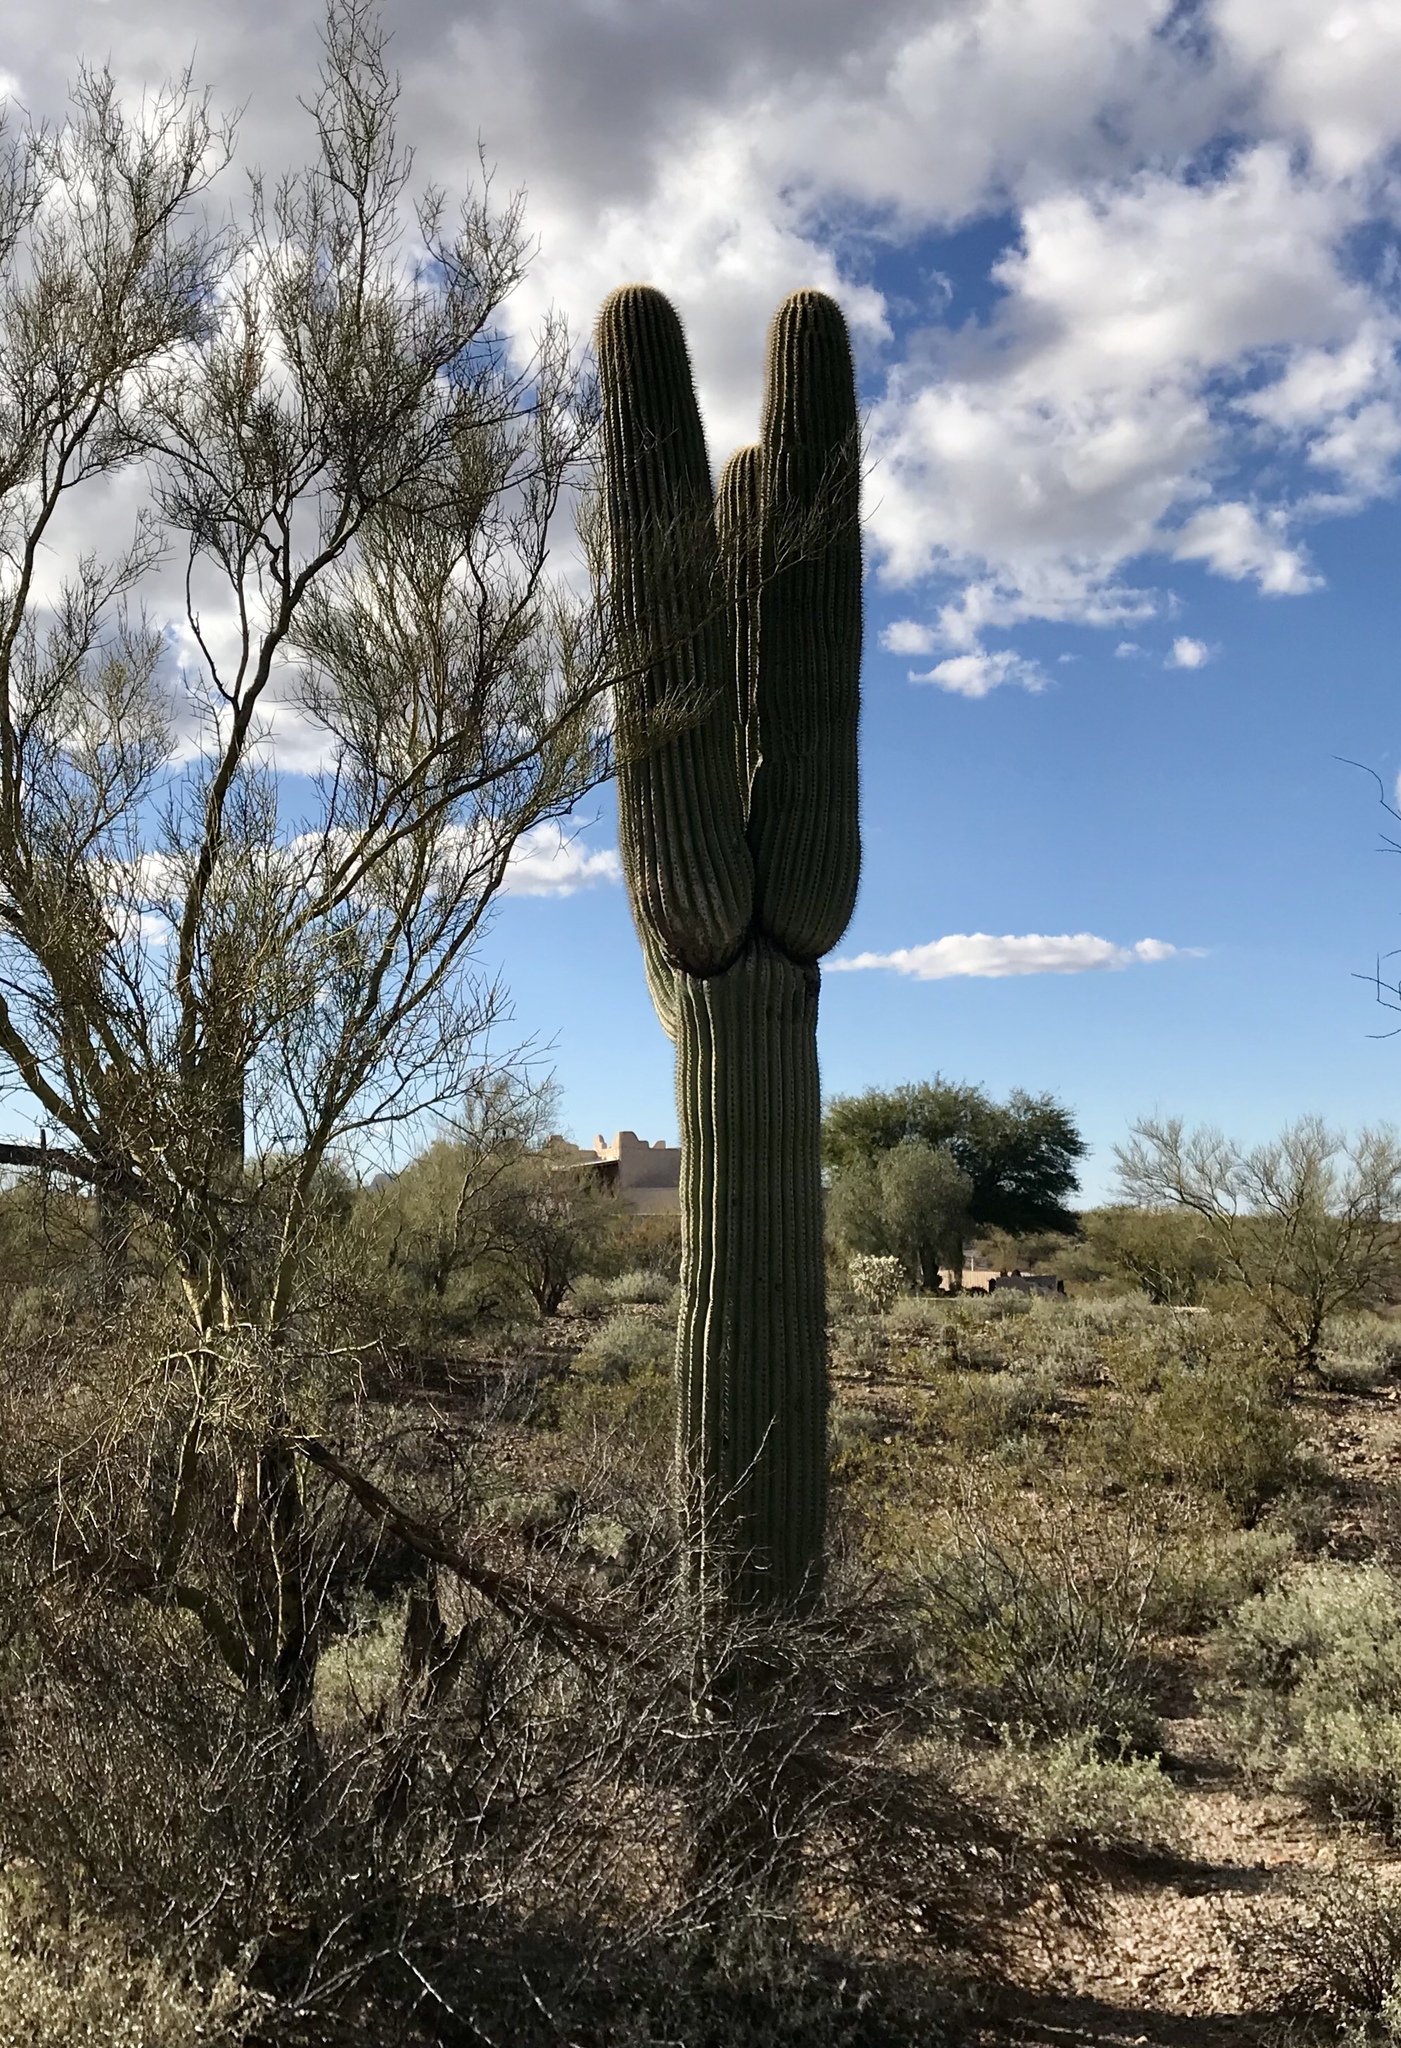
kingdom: Plantae
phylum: Tracheophyta
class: Magnoliopsida
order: Caryophyllales
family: Cactaceae
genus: Carnegiea
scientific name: Carnegiea gigantea
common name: Saguaro
